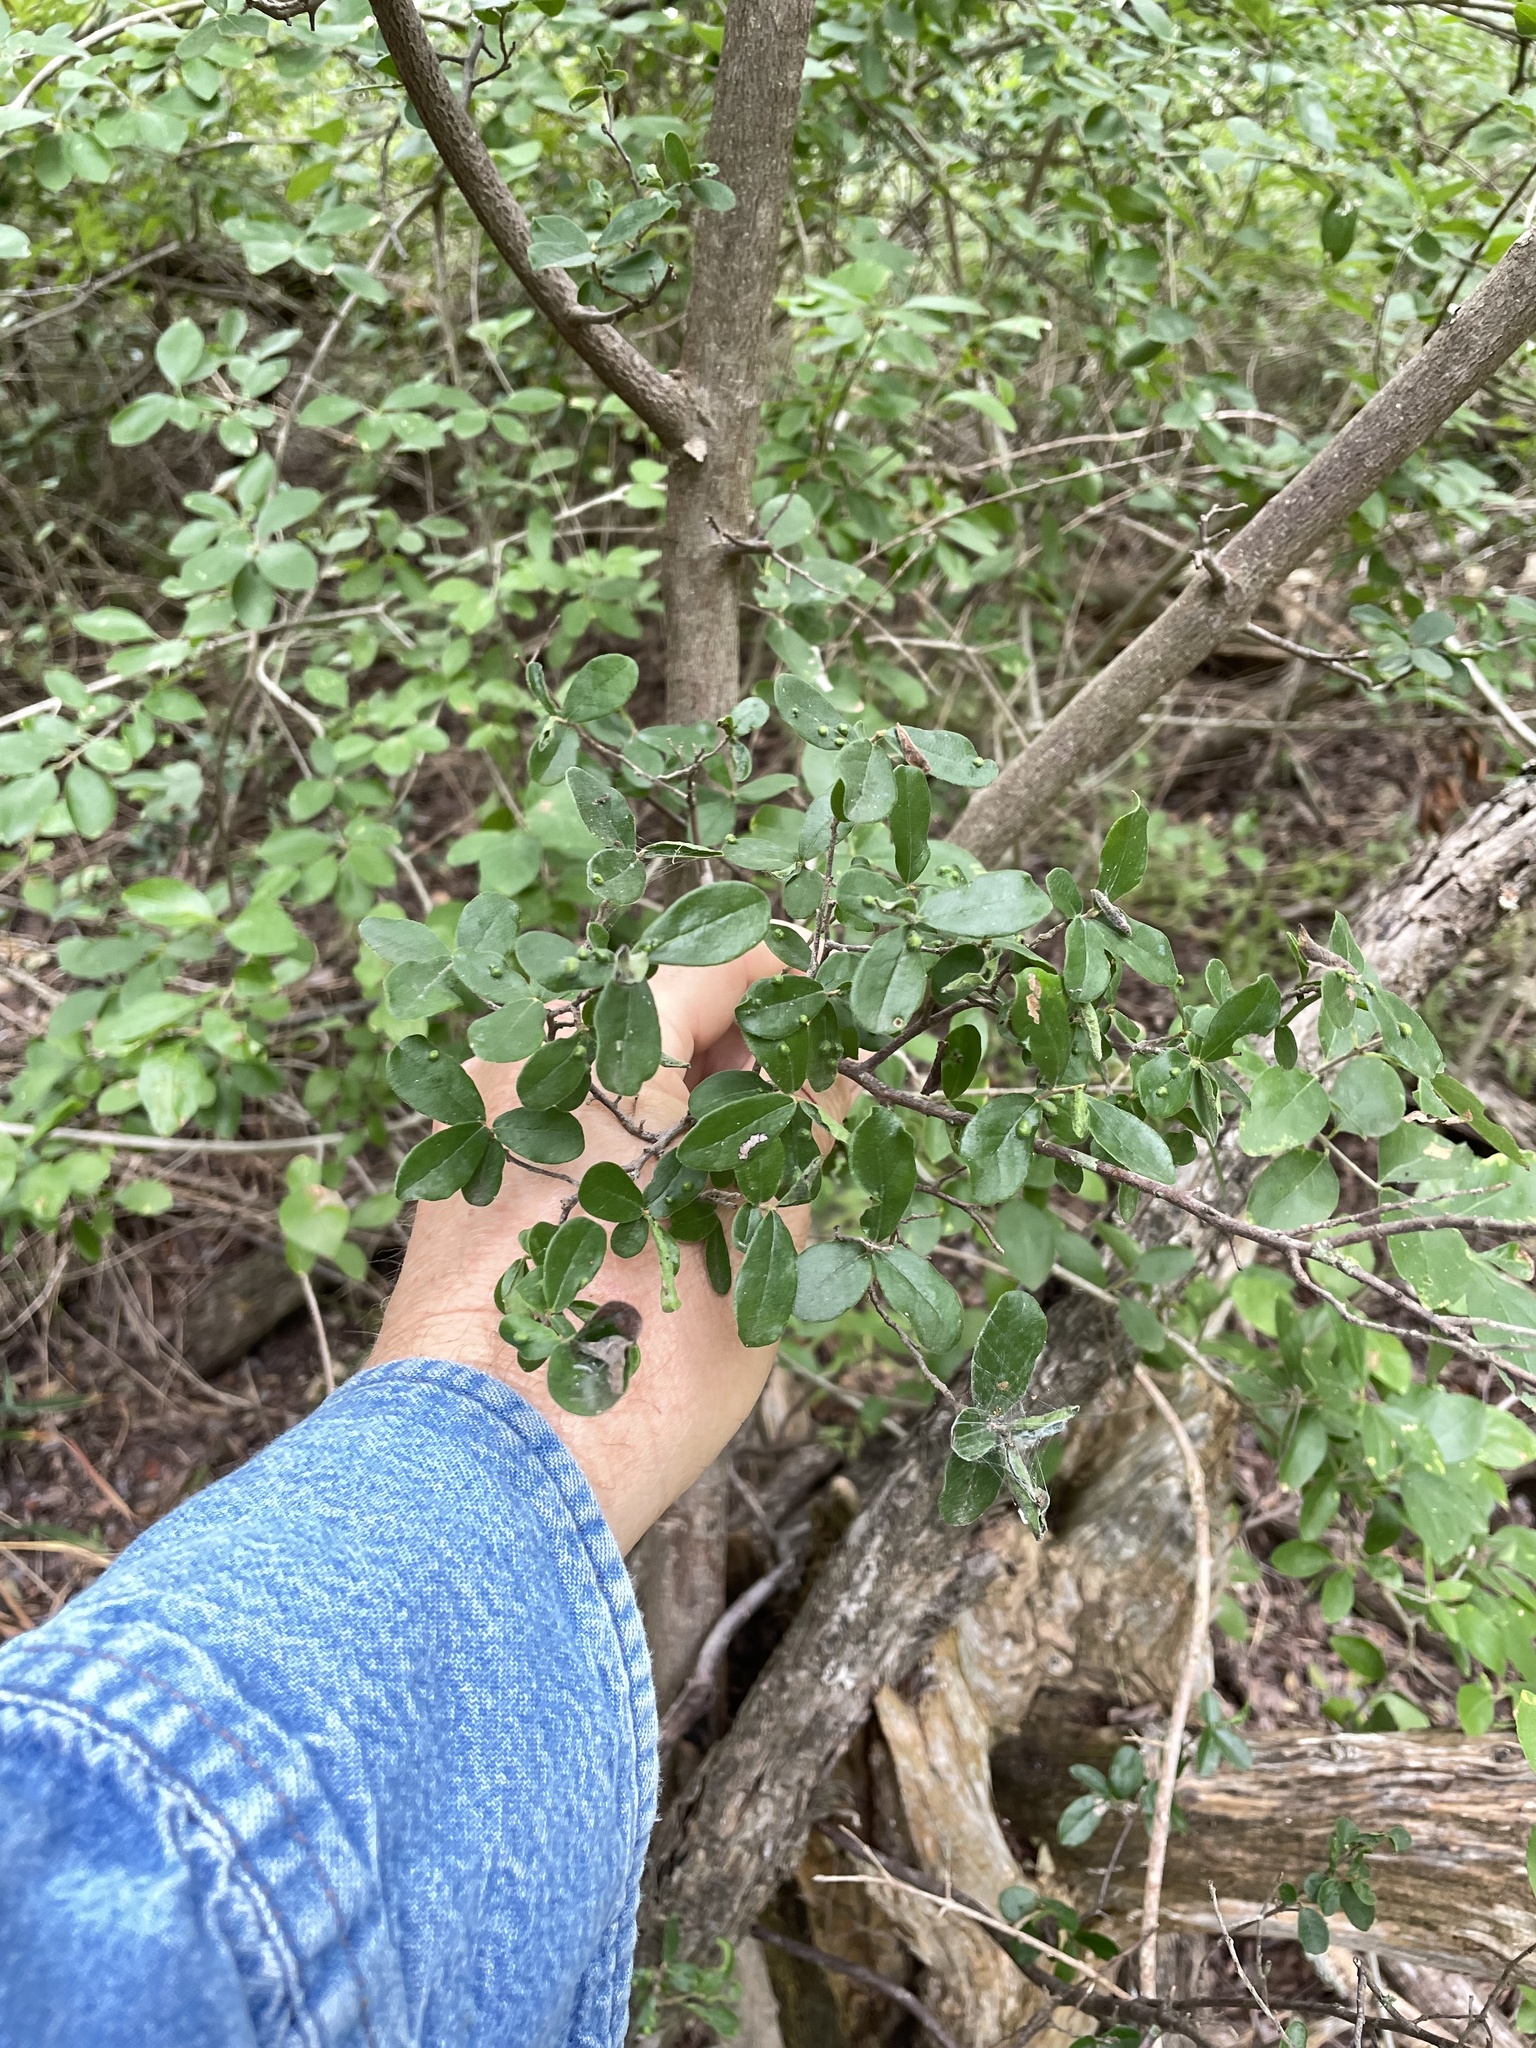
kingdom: Plantae
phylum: Tracheophyta
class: Magnoliopsida
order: Ericales
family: Ebenaceae
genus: Diospyros
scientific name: Diospyros texana
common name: Texas persimmon
